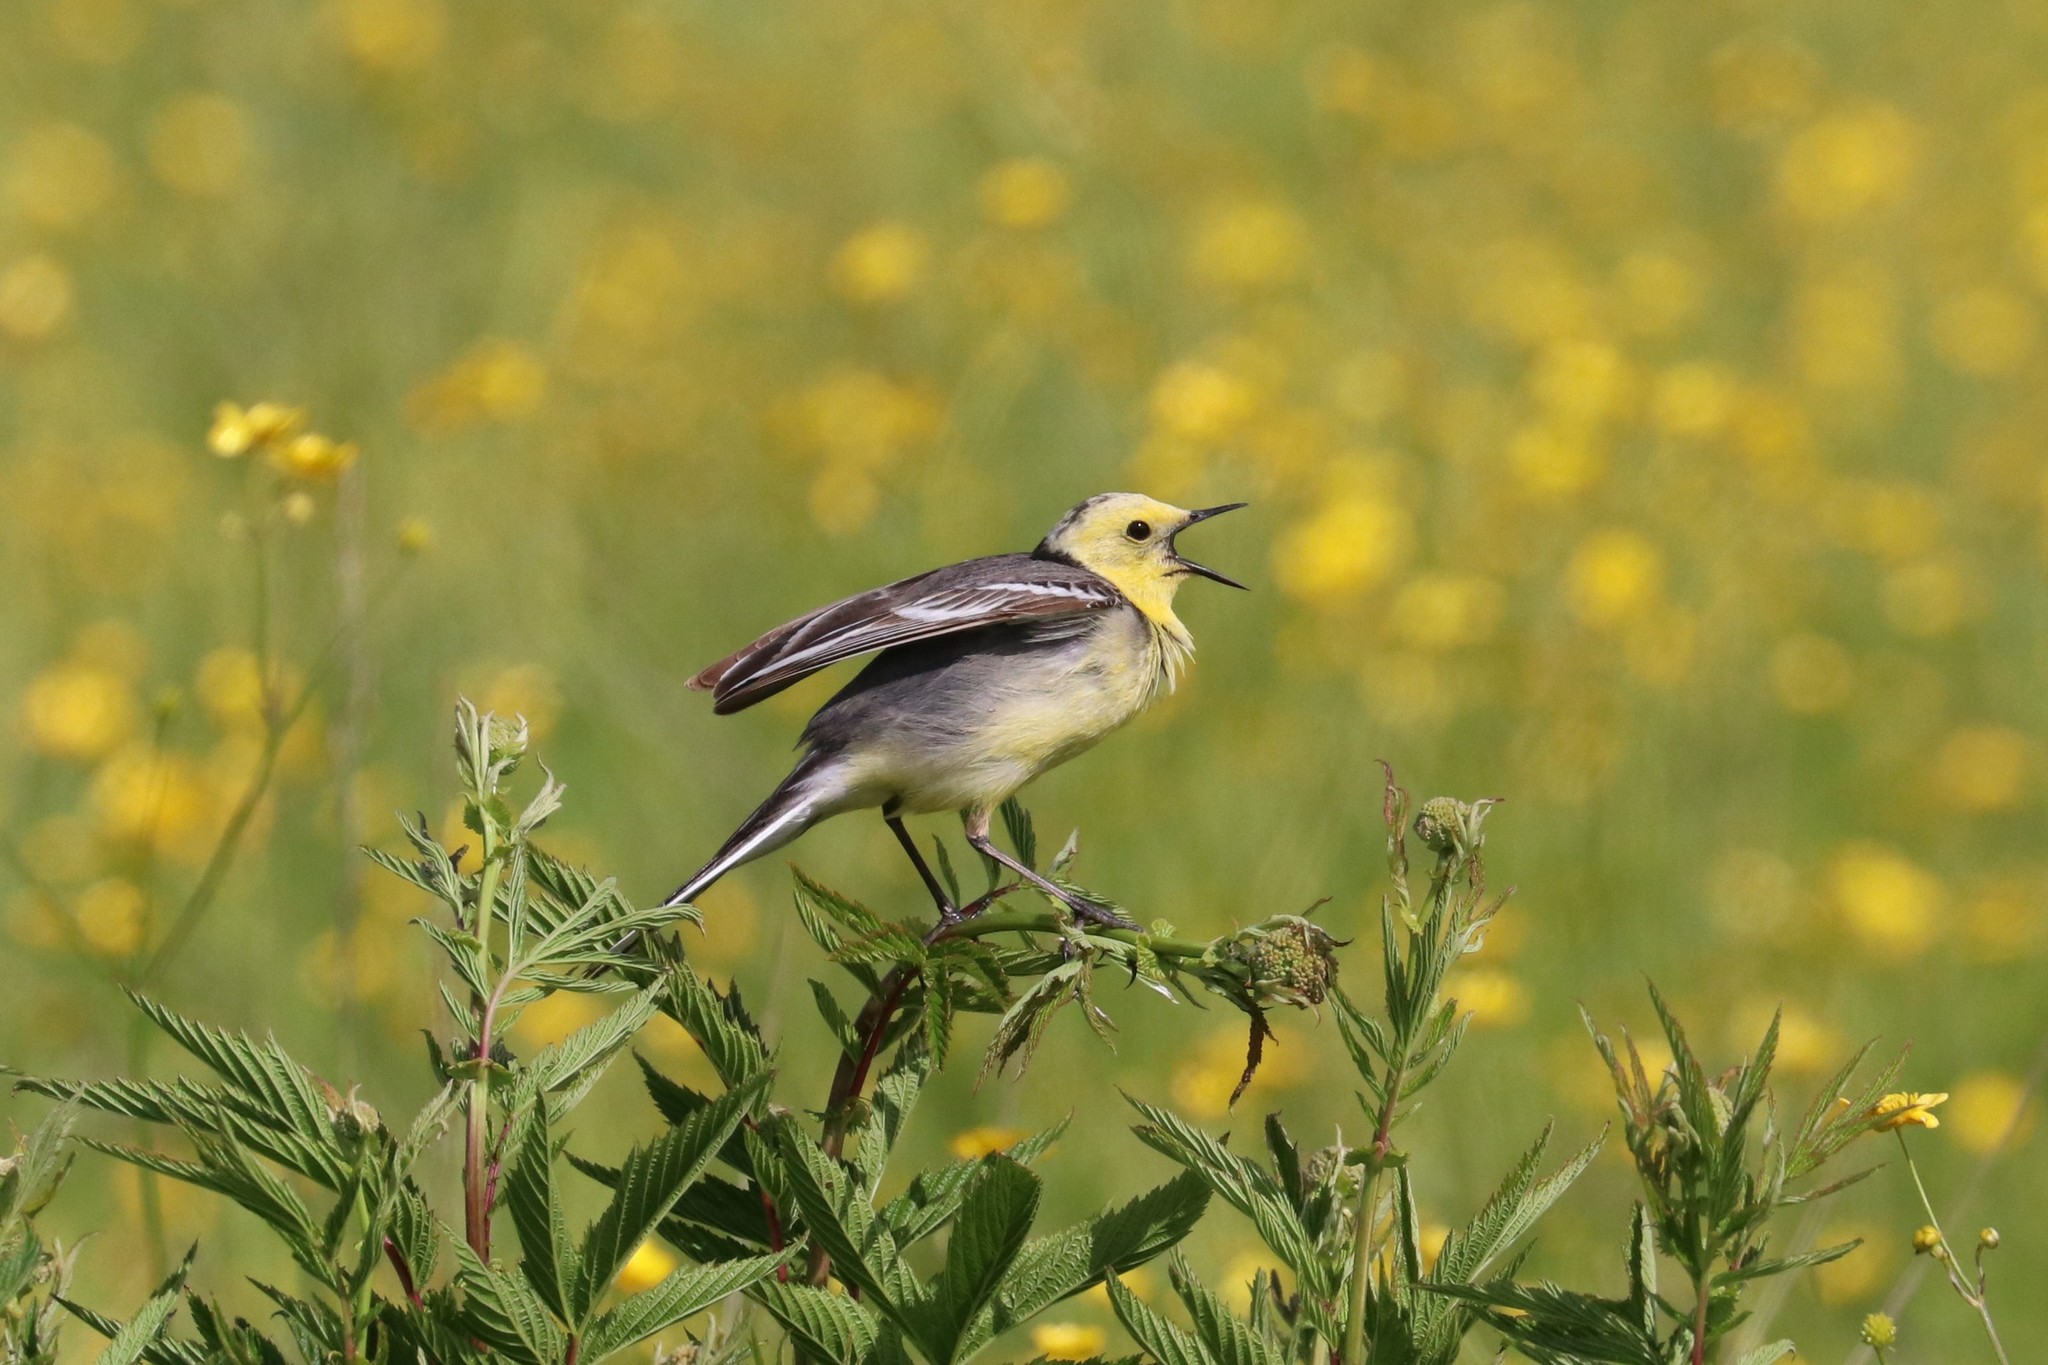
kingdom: Animalia
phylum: Chordata
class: Aves
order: Passeriformes
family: Motacillidae
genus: Motacilla
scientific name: Motacilla citreola
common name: Citrine wagtail
